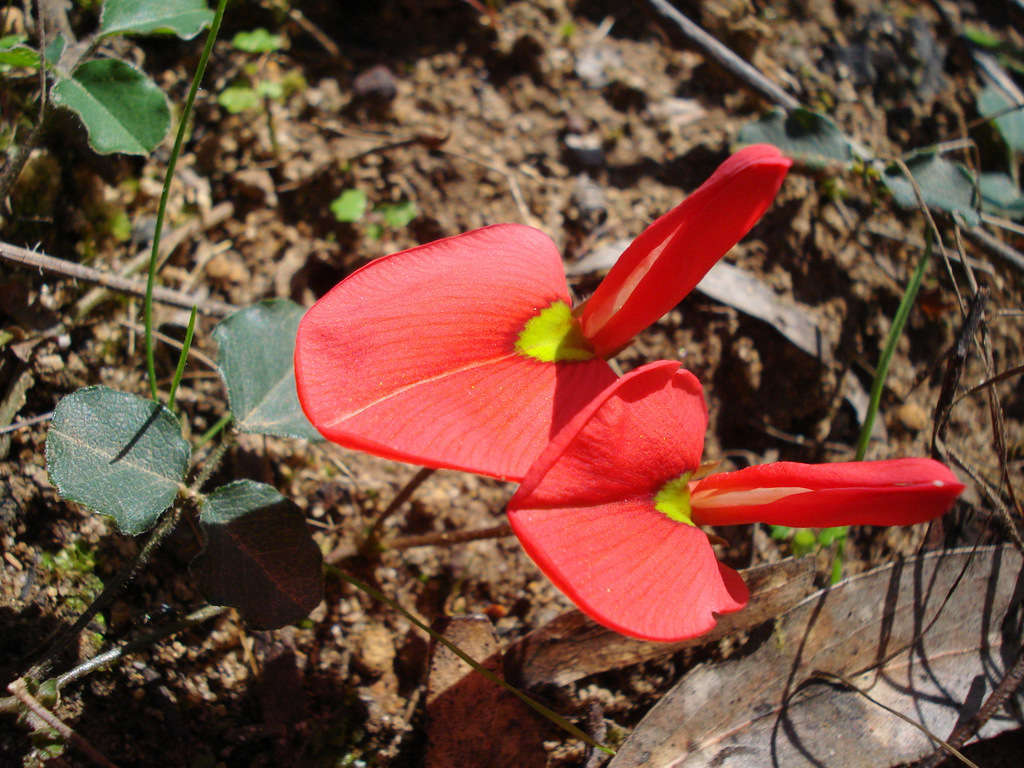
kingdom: Plantae
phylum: Tracheophyta
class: Magnoliopsida
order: Fabales
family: Fabaceae
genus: Kennedia
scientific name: Kennedia prostrata
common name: Running-postman
